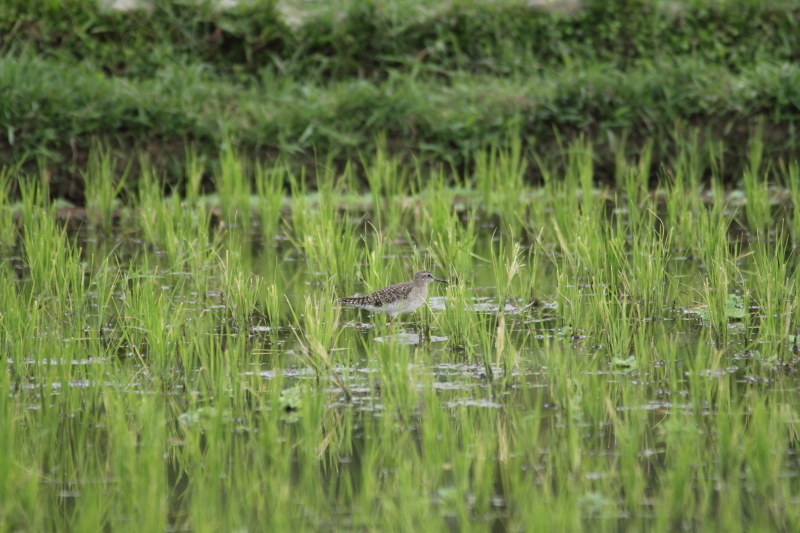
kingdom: Animalia
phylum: Chordata
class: Aves
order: Charadriiformes
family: Scolopacidae
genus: Tringa
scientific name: Tringa glareola
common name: Wood sandpiper
